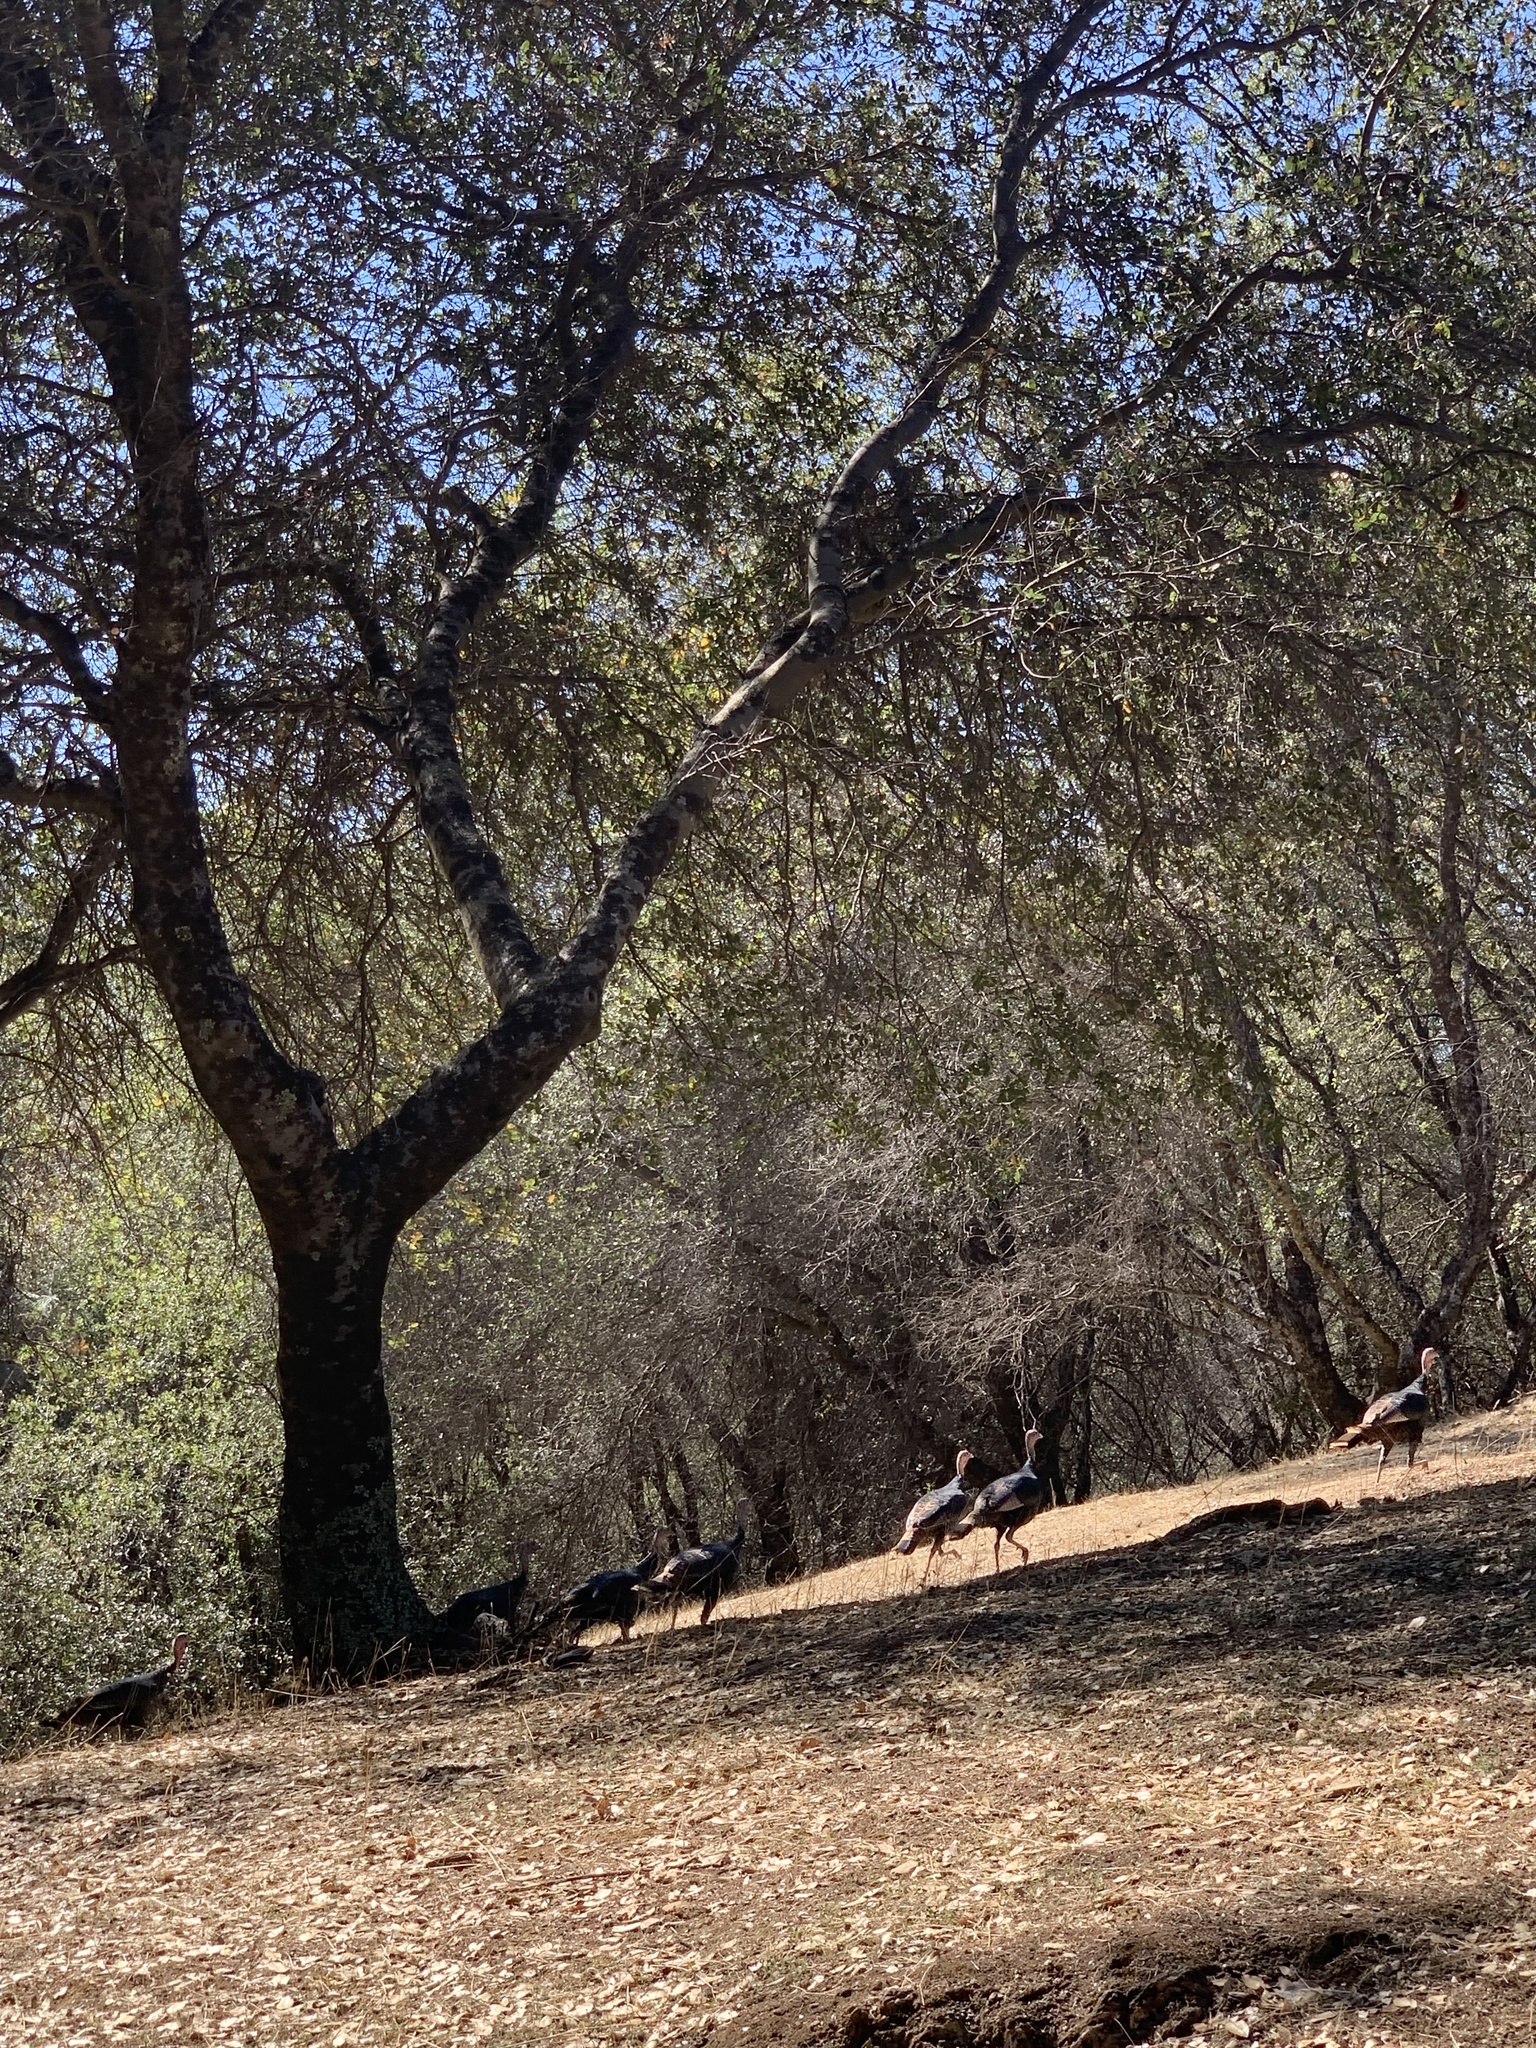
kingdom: Animalia
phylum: Chordata
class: Aves
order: Galliformes
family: Phasianidae
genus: Meleagris
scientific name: Meleagris gallopavo
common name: Wild turkey
